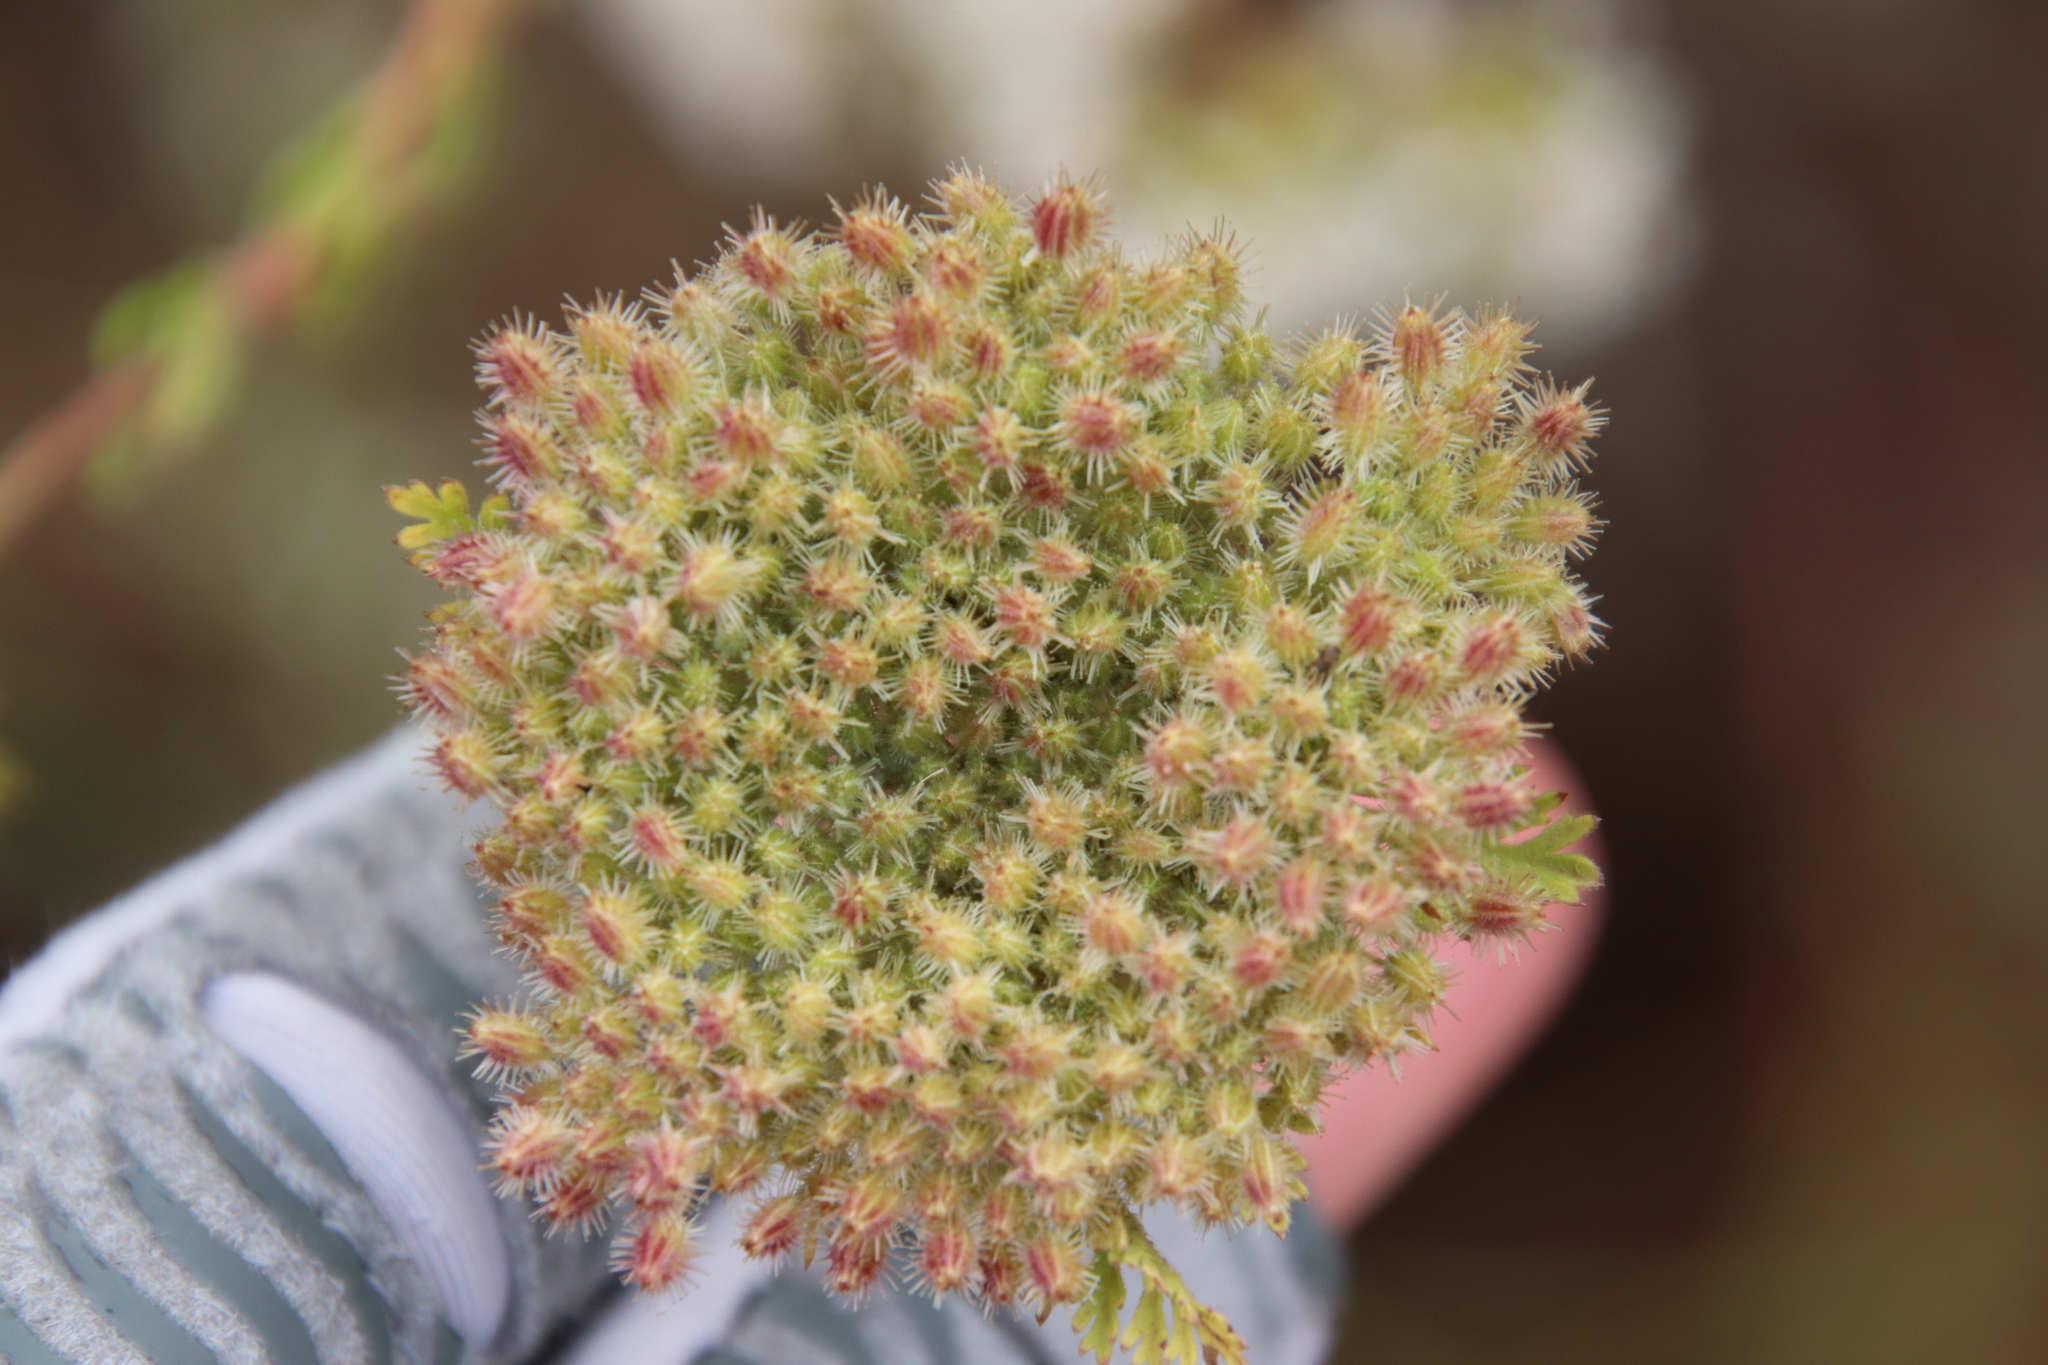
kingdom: Plantae
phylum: Tracheophyta
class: Magnoliopsida
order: Apiales
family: Apiaceae
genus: Daucus
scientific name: Daucus pusillus
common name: Southwest wild carrot
